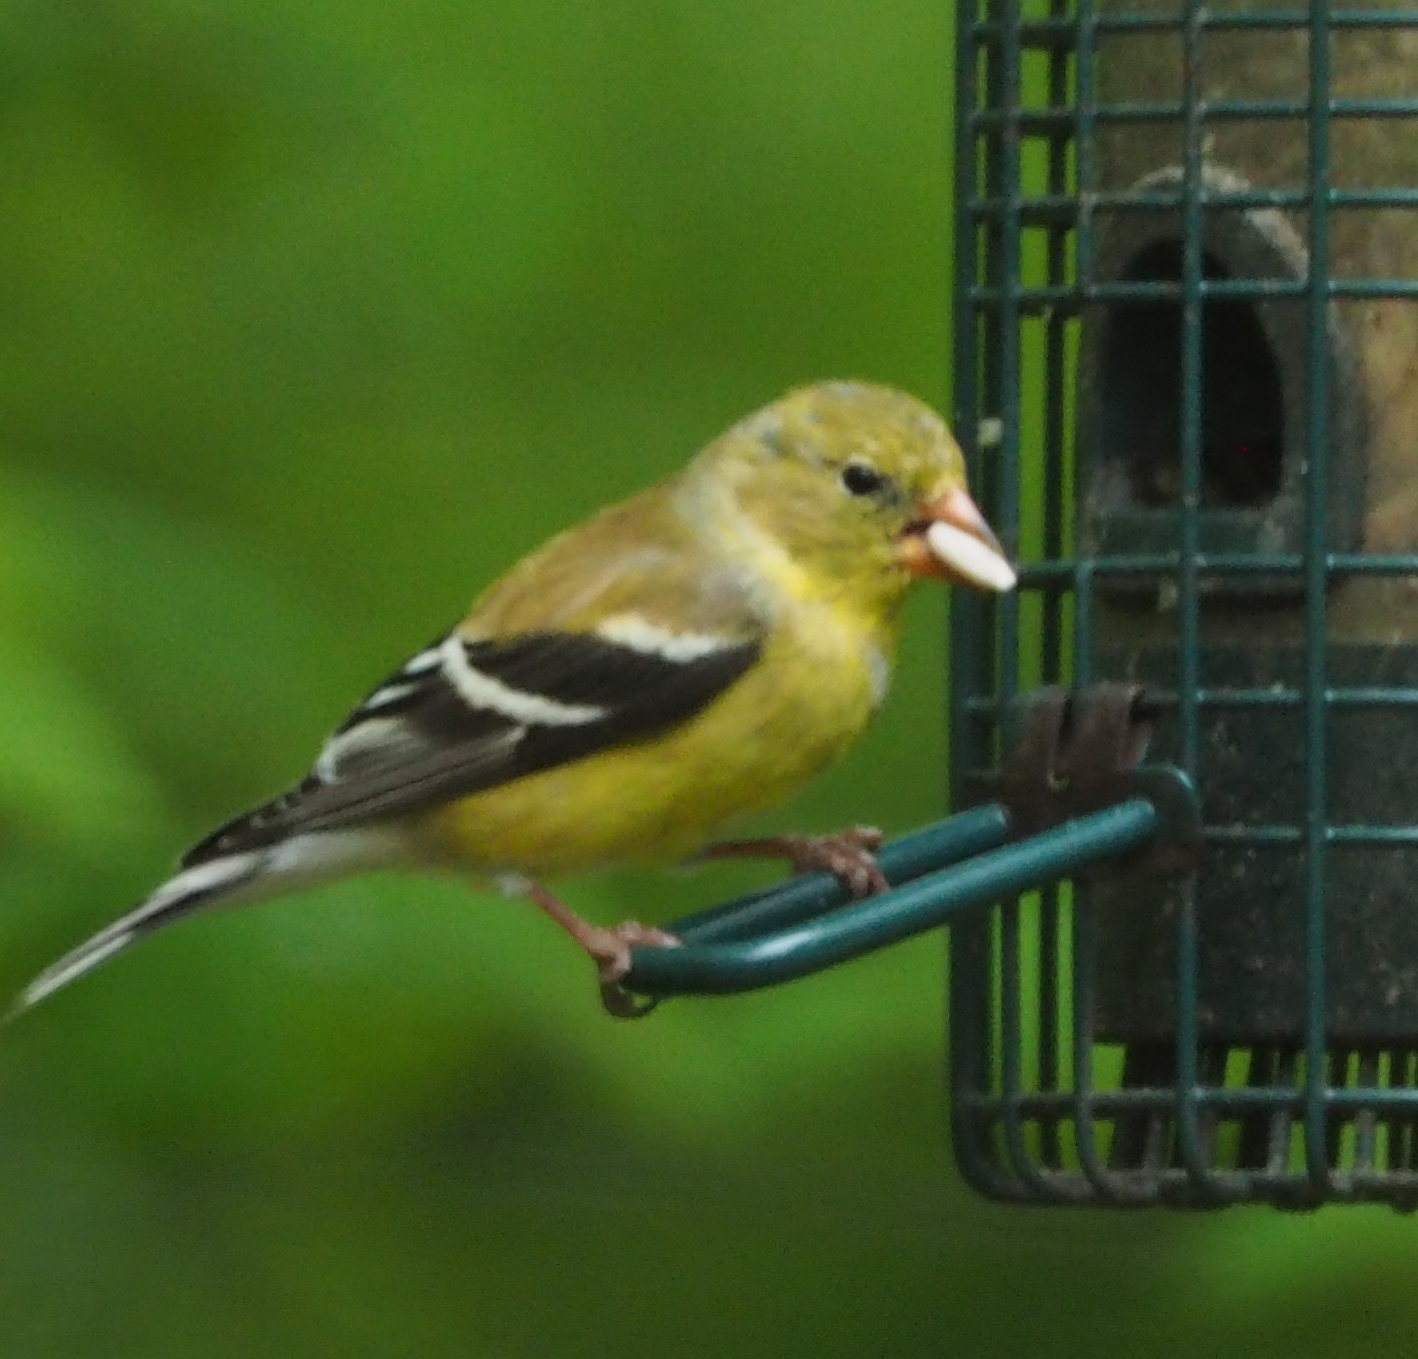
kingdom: Animalia
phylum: Chordata
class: Aves
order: Passeriformes
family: Fringillidae
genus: Spinus
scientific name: Spinus tristis
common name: American goldfinch
